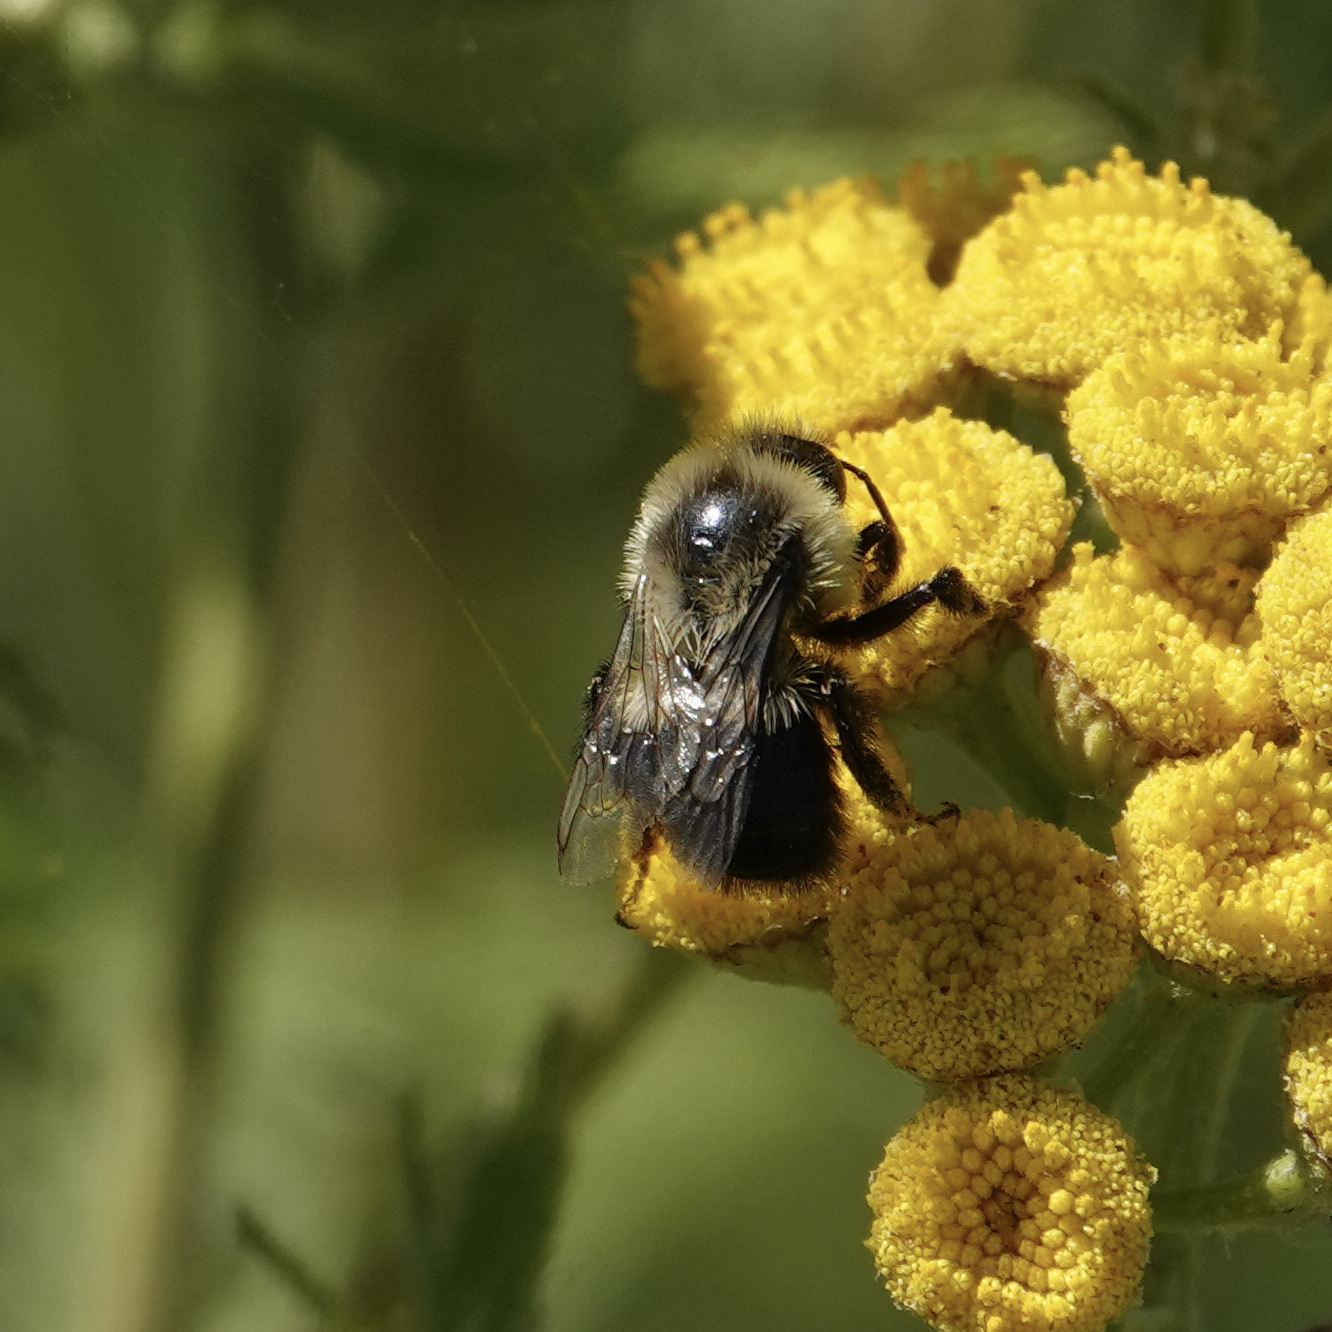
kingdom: Animalia
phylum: Arthropoda
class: Insecta
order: Hymenoptera
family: Apidae
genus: Bombus
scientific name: Bombus impatiens
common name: Common eastern bumble bee
